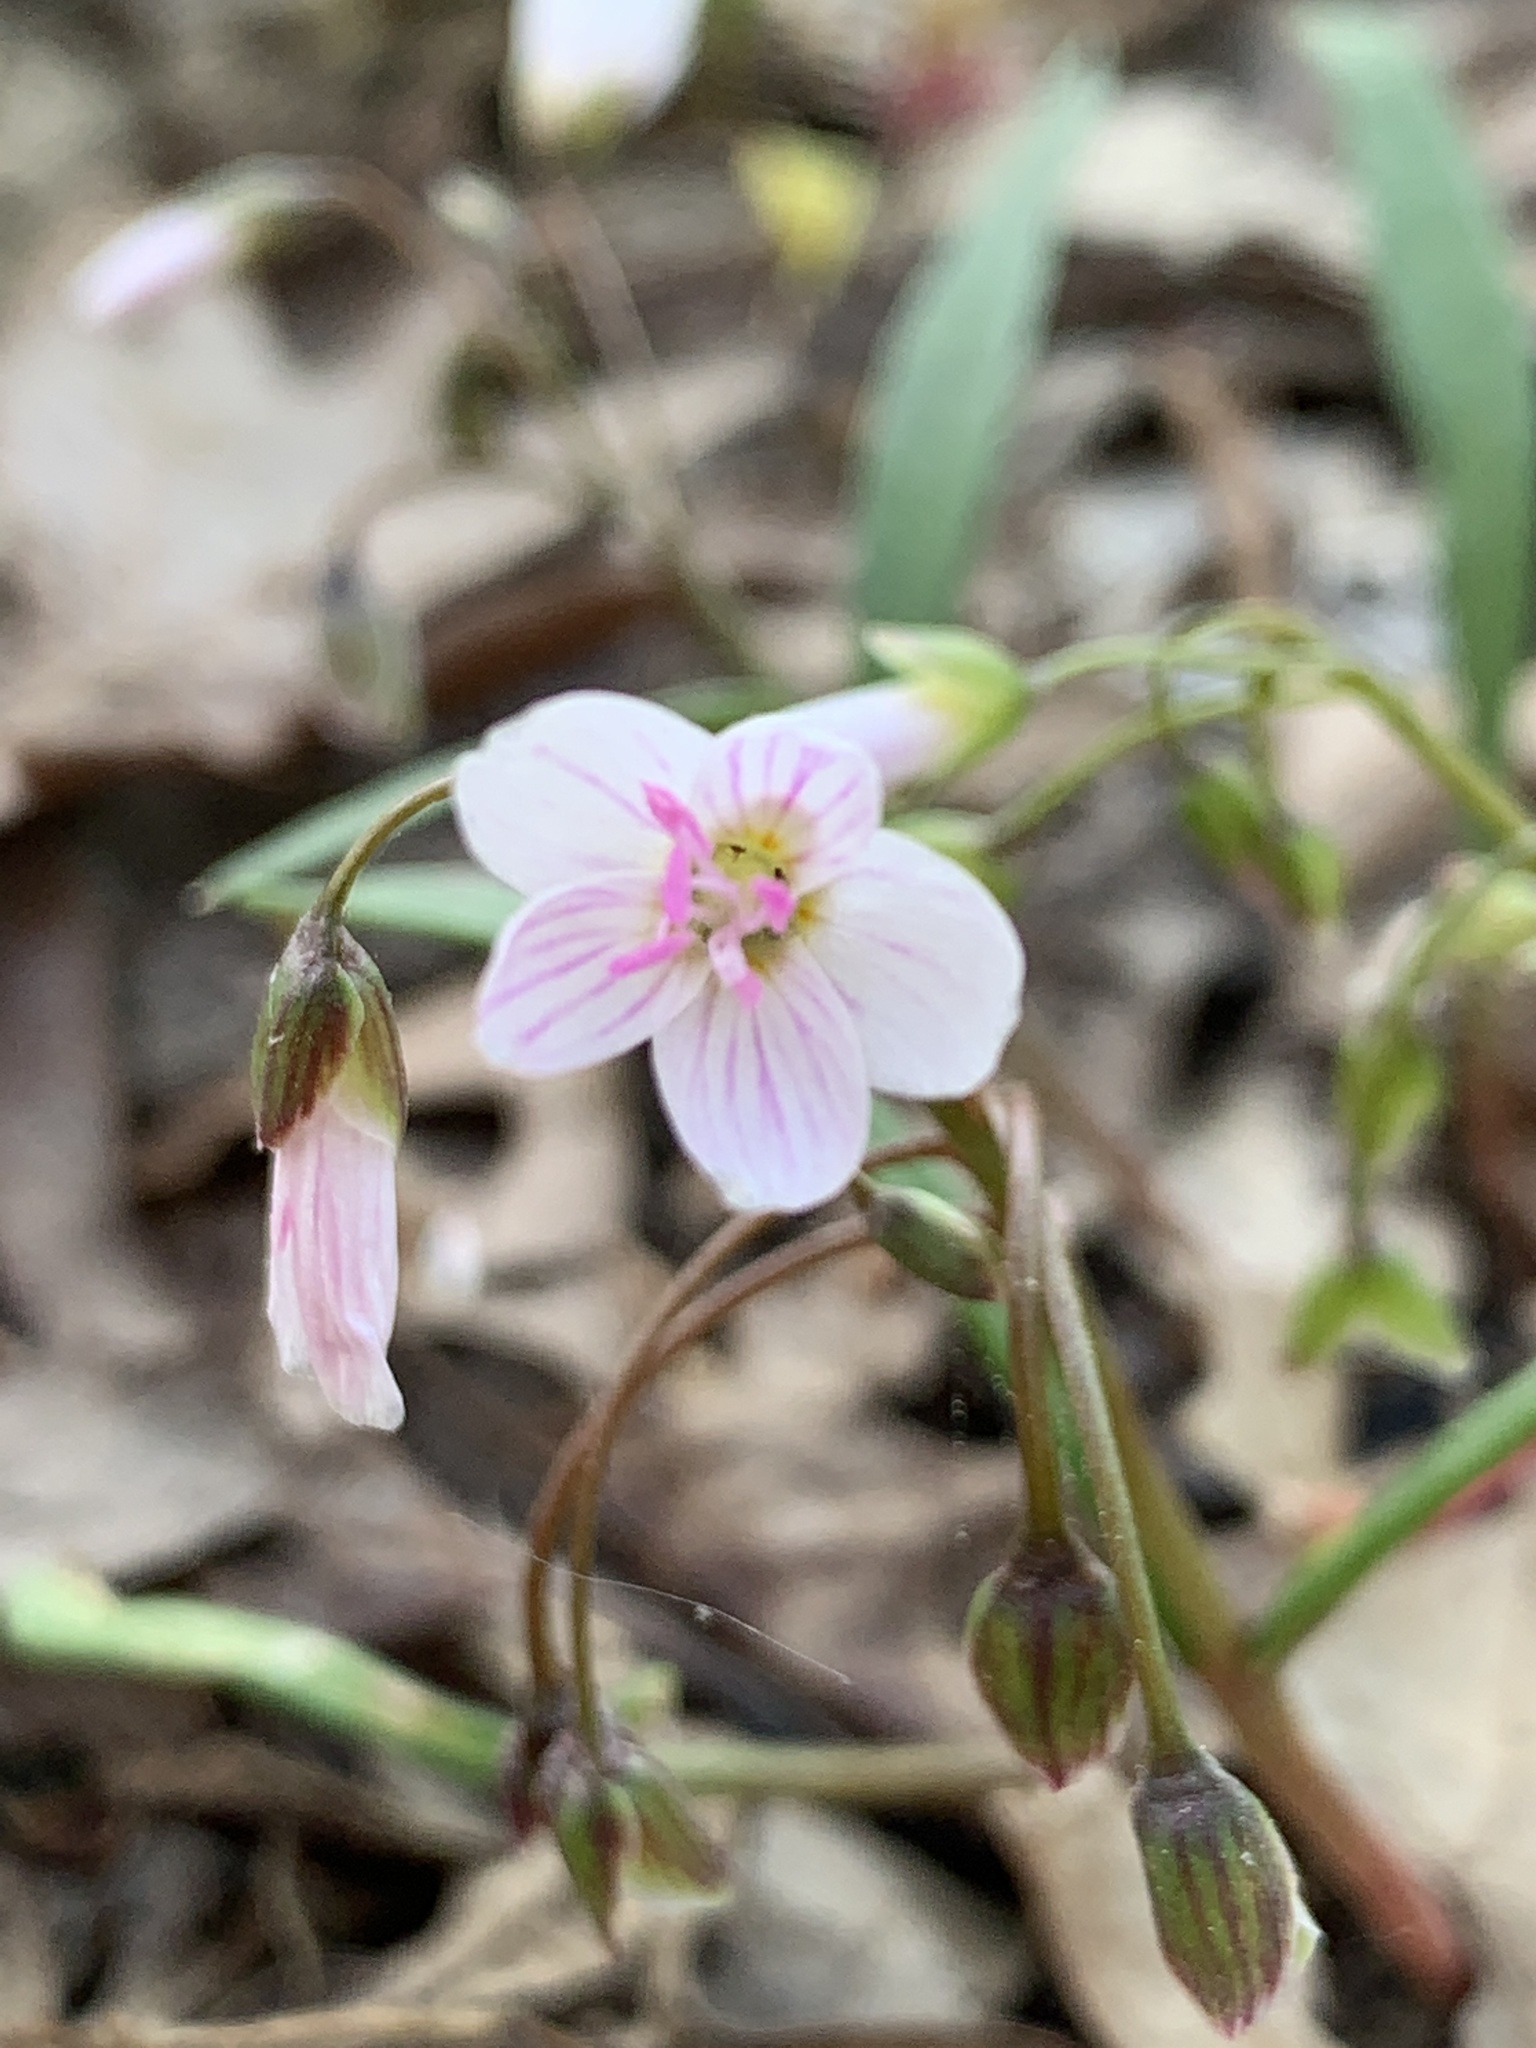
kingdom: Plantae
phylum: Tracheophyta
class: Magnoliopsida
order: Caryophyllales
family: Montiaceae
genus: Claytonia
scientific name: Claytonia virginica
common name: Virginia springbeauty
